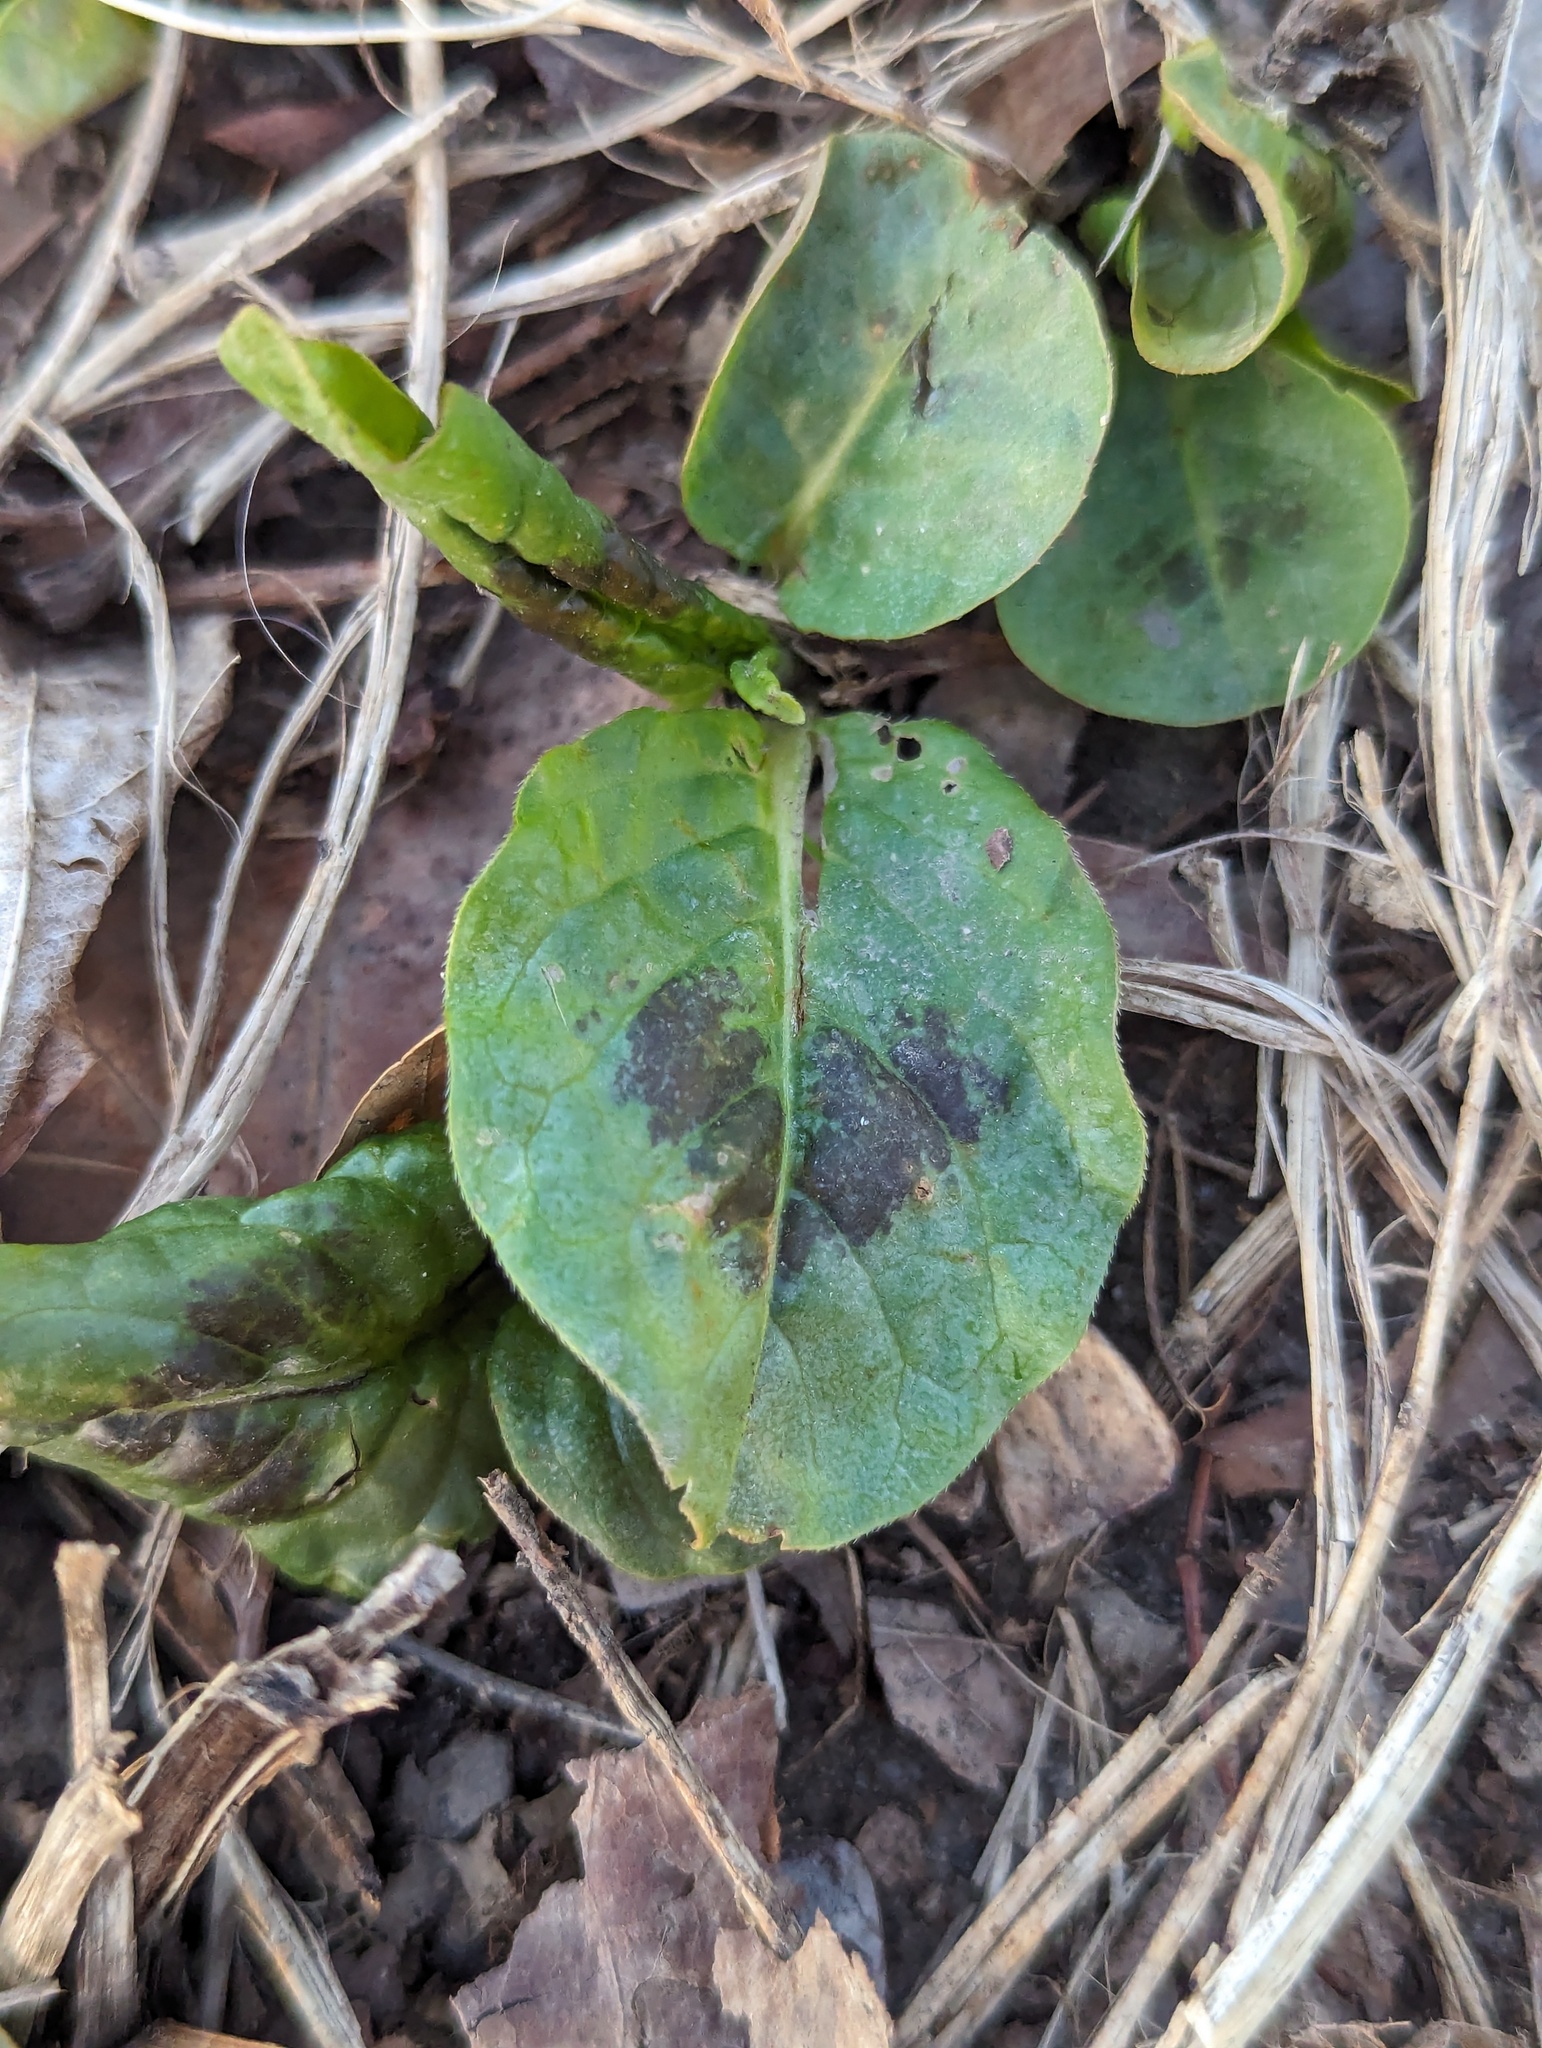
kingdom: Plantae
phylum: Tracheophyta
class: Magnoliopsida
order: Caryophyllales
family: Polygonaceae
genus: Persicaria
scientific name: Persicaria virginiana
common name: Jumpseed
